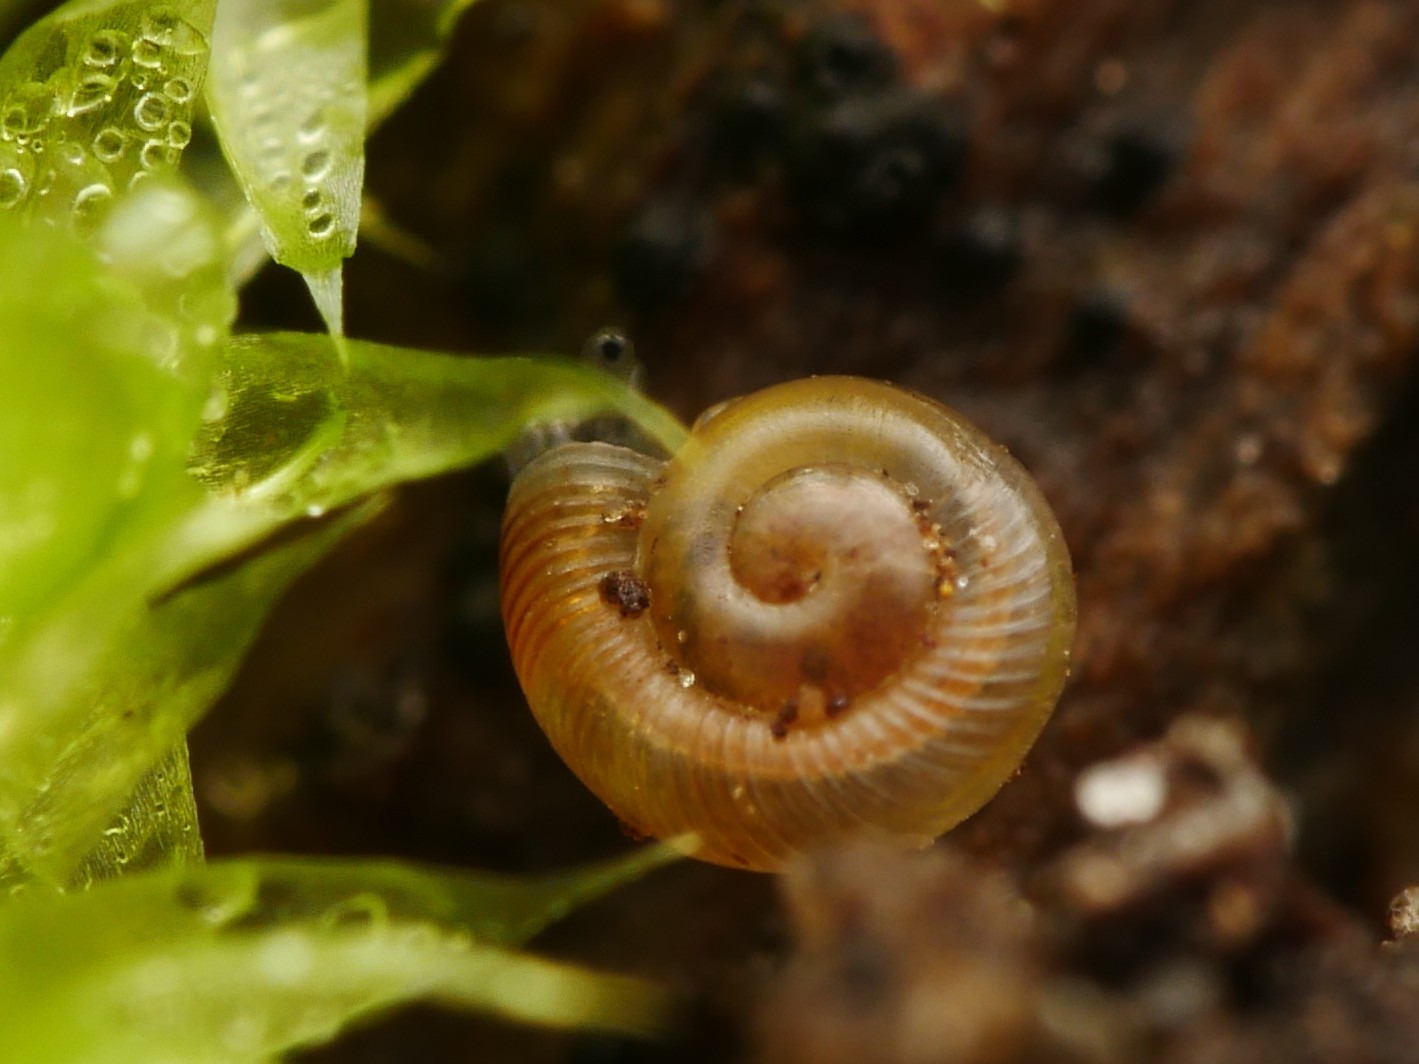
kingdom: Animalia
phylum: Mollusca
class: Gastropoda
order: Stylommatophora
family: Discidae
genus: Discus
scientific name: Discus rotundatus
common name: Rounded snail
